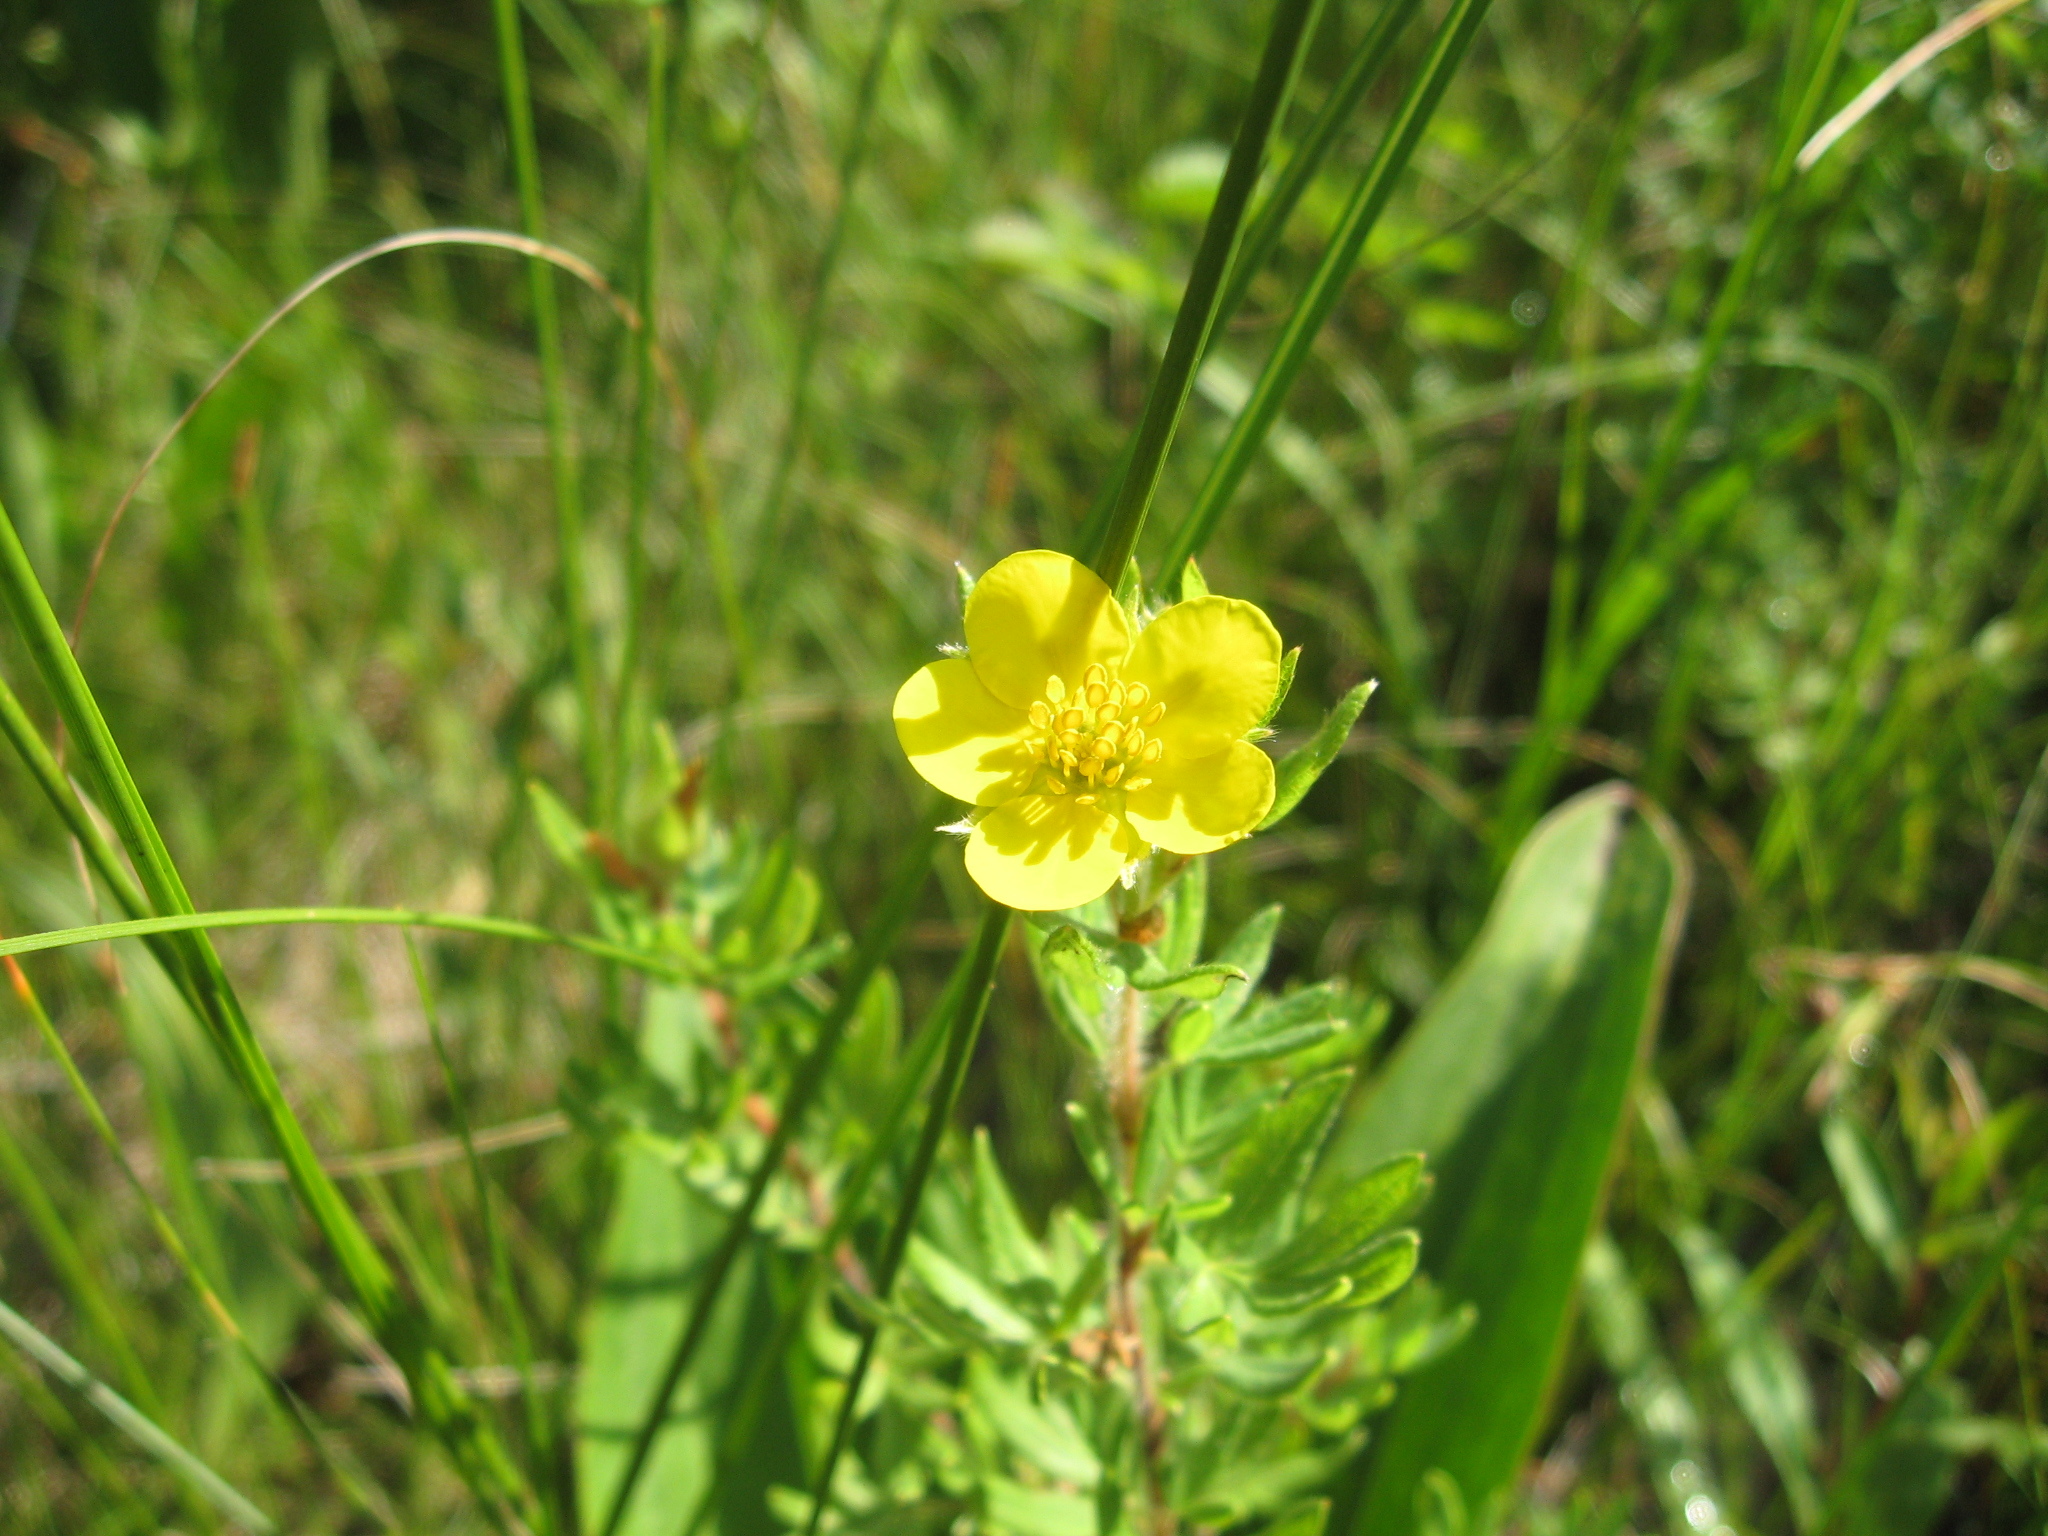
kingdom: Plantae
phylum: Tracheophyta
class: Magnoliopsida
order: Rosales
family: Rosaceae
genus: Dasiphora
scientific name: Dasiphora fruticosa
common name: Shrubby cinquefoil
